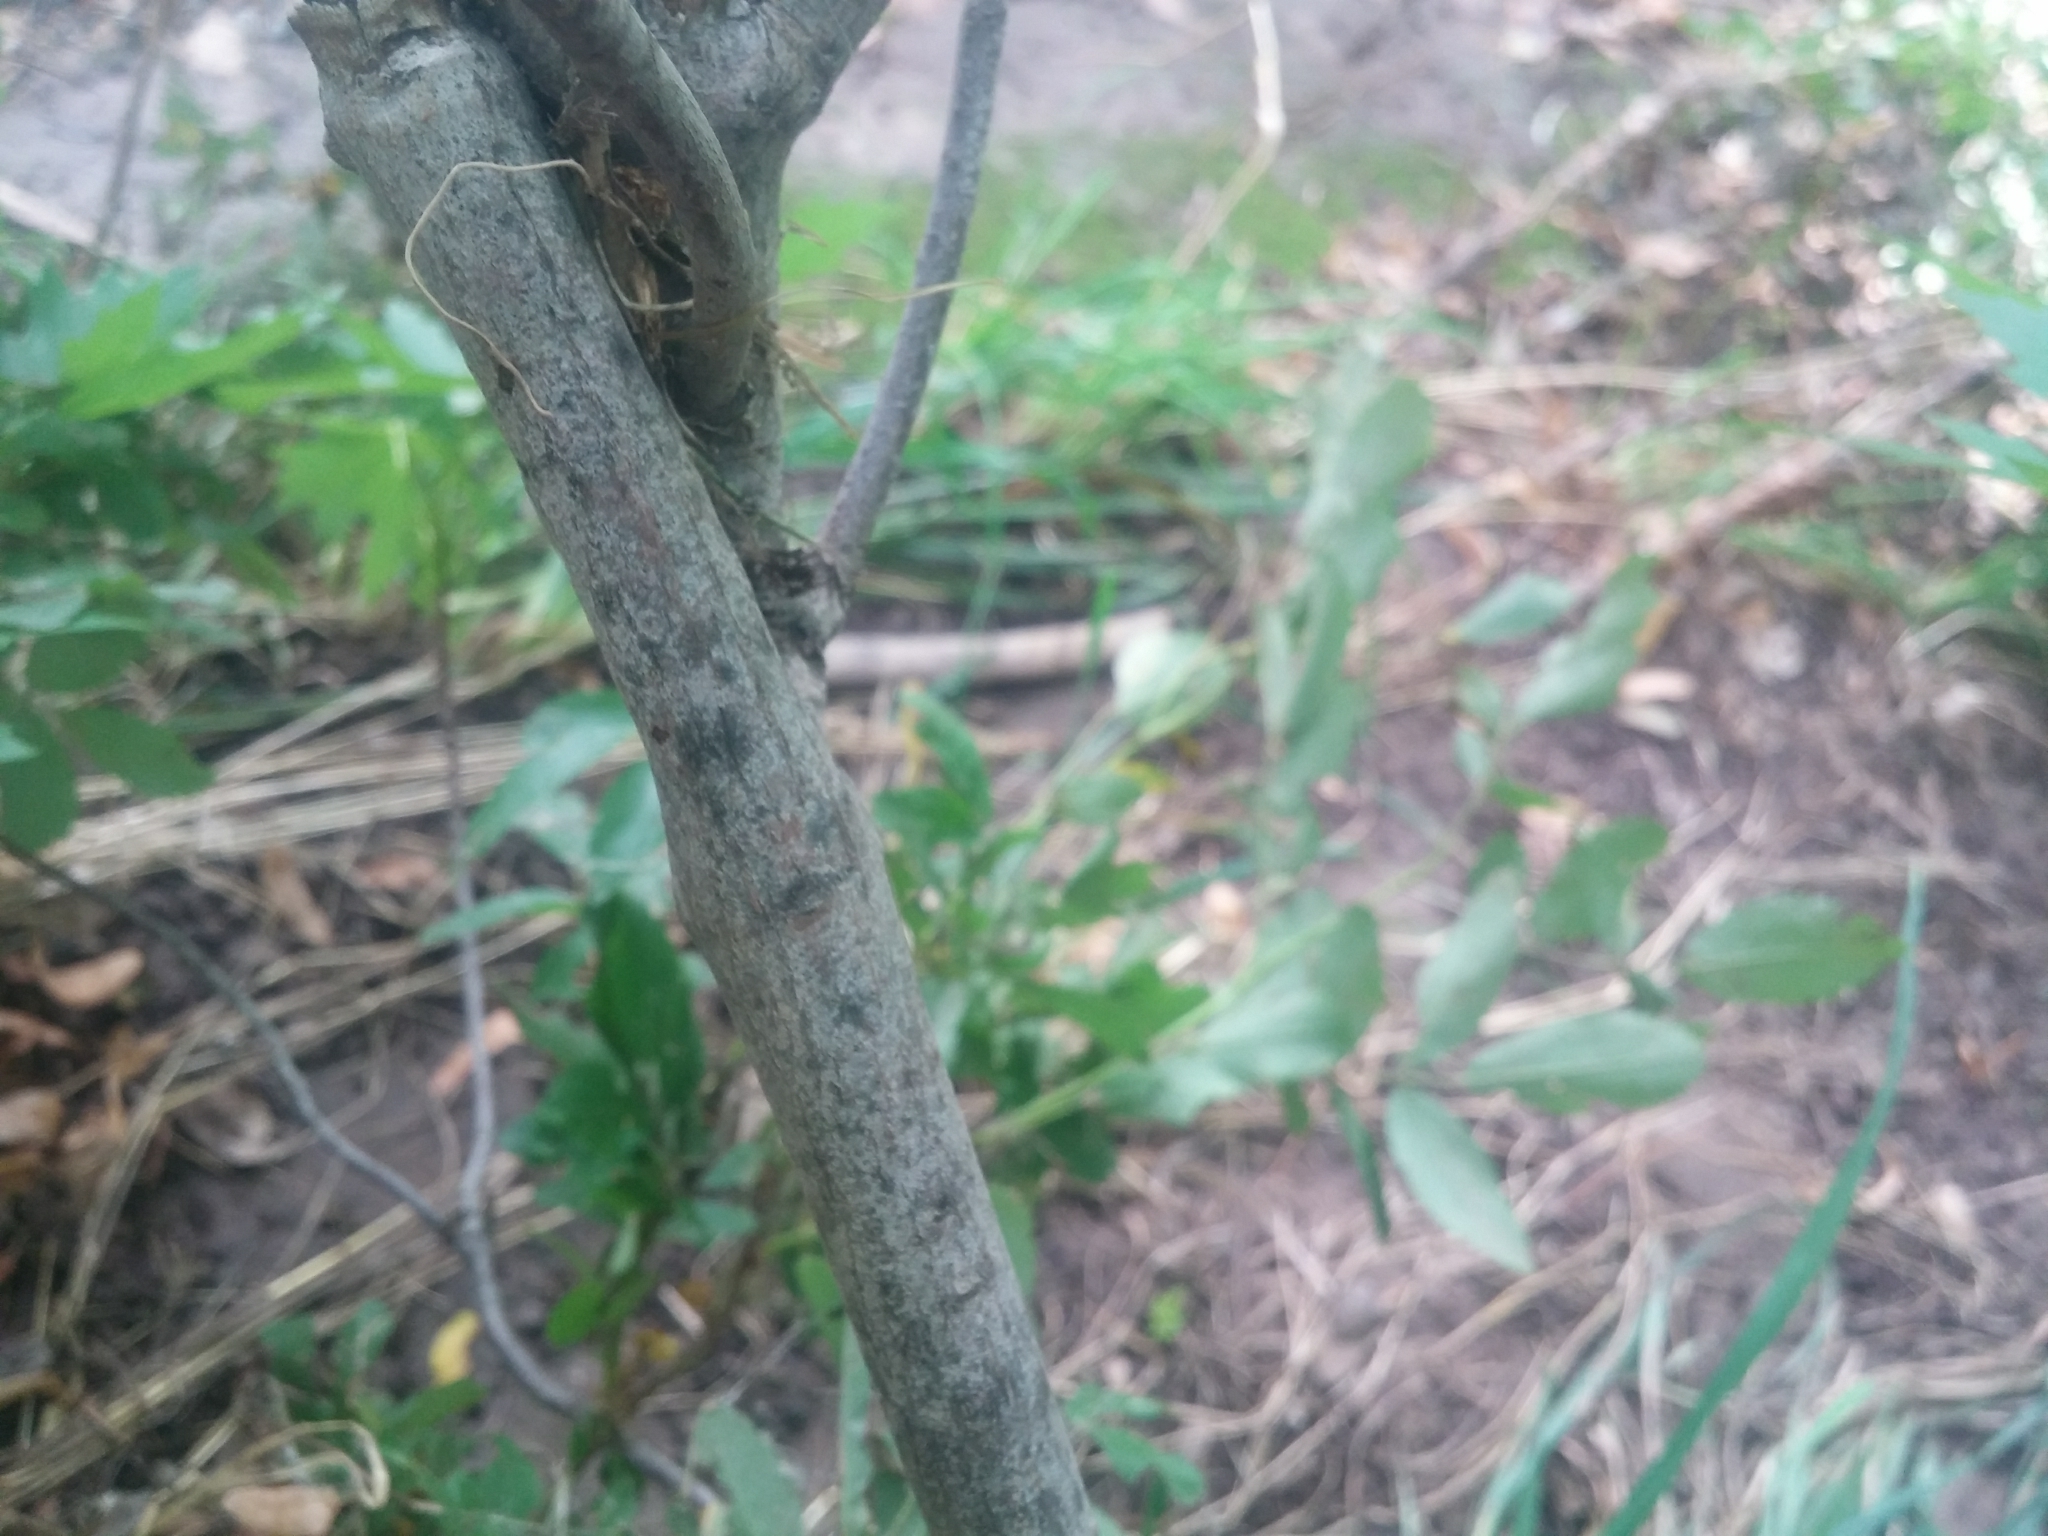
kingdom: Plantae
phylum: Tracheophyta
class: Magnoliopsida
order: Sapindales
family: Sapindaceae
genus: Acer
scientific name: Acer saccharinum
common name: Silver maple
